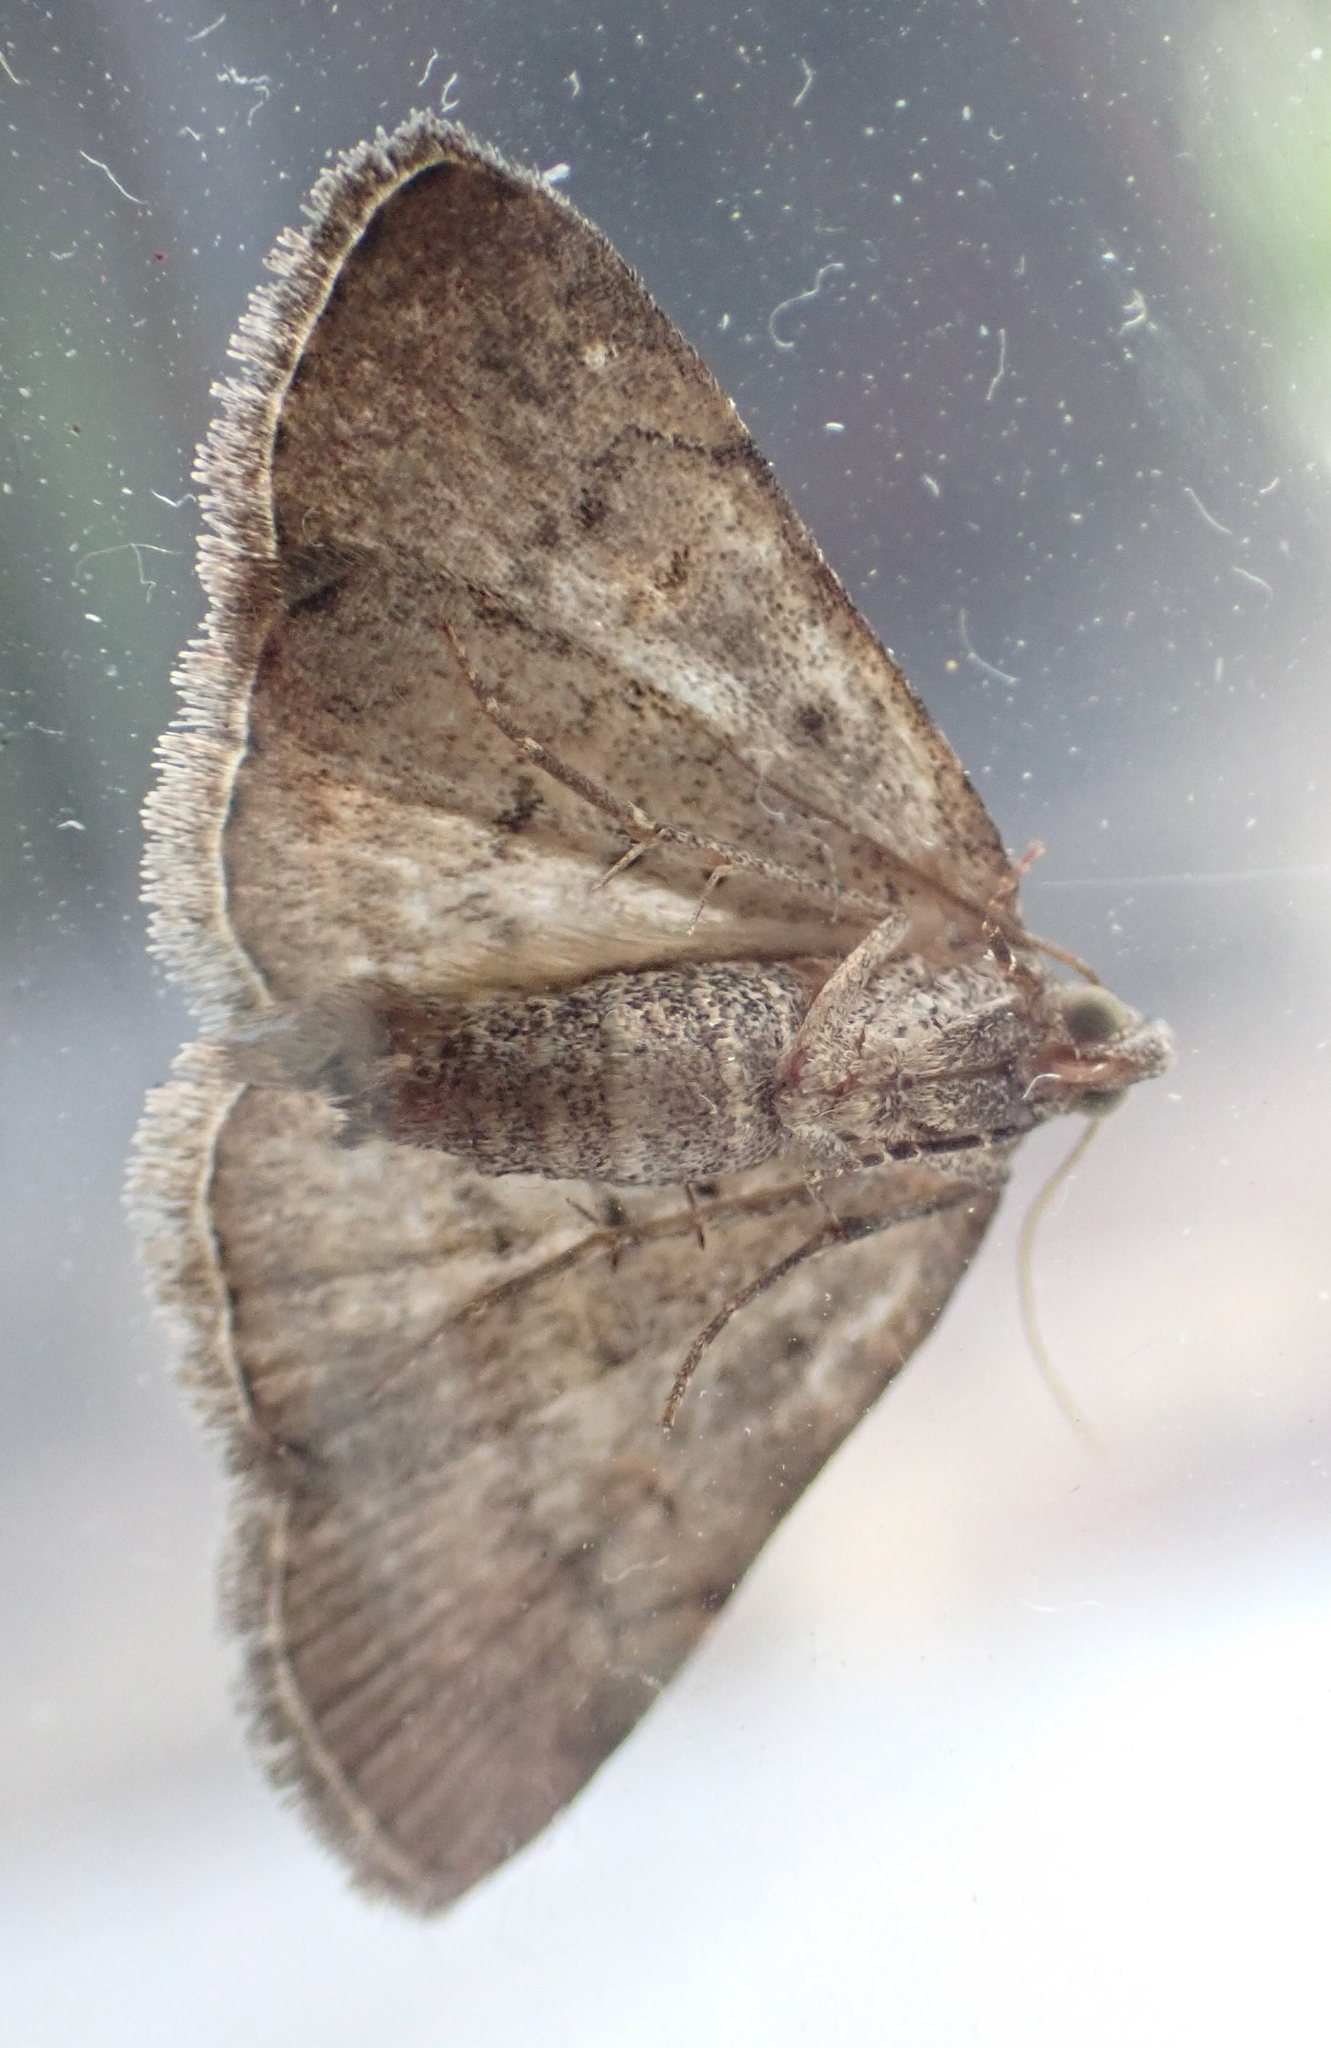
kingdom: Animalia
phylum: Arthropoda
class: Insecta
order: Lepidoptera
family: Erebidae
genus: Idia
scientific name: Idia aemula
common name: Common idia moth
